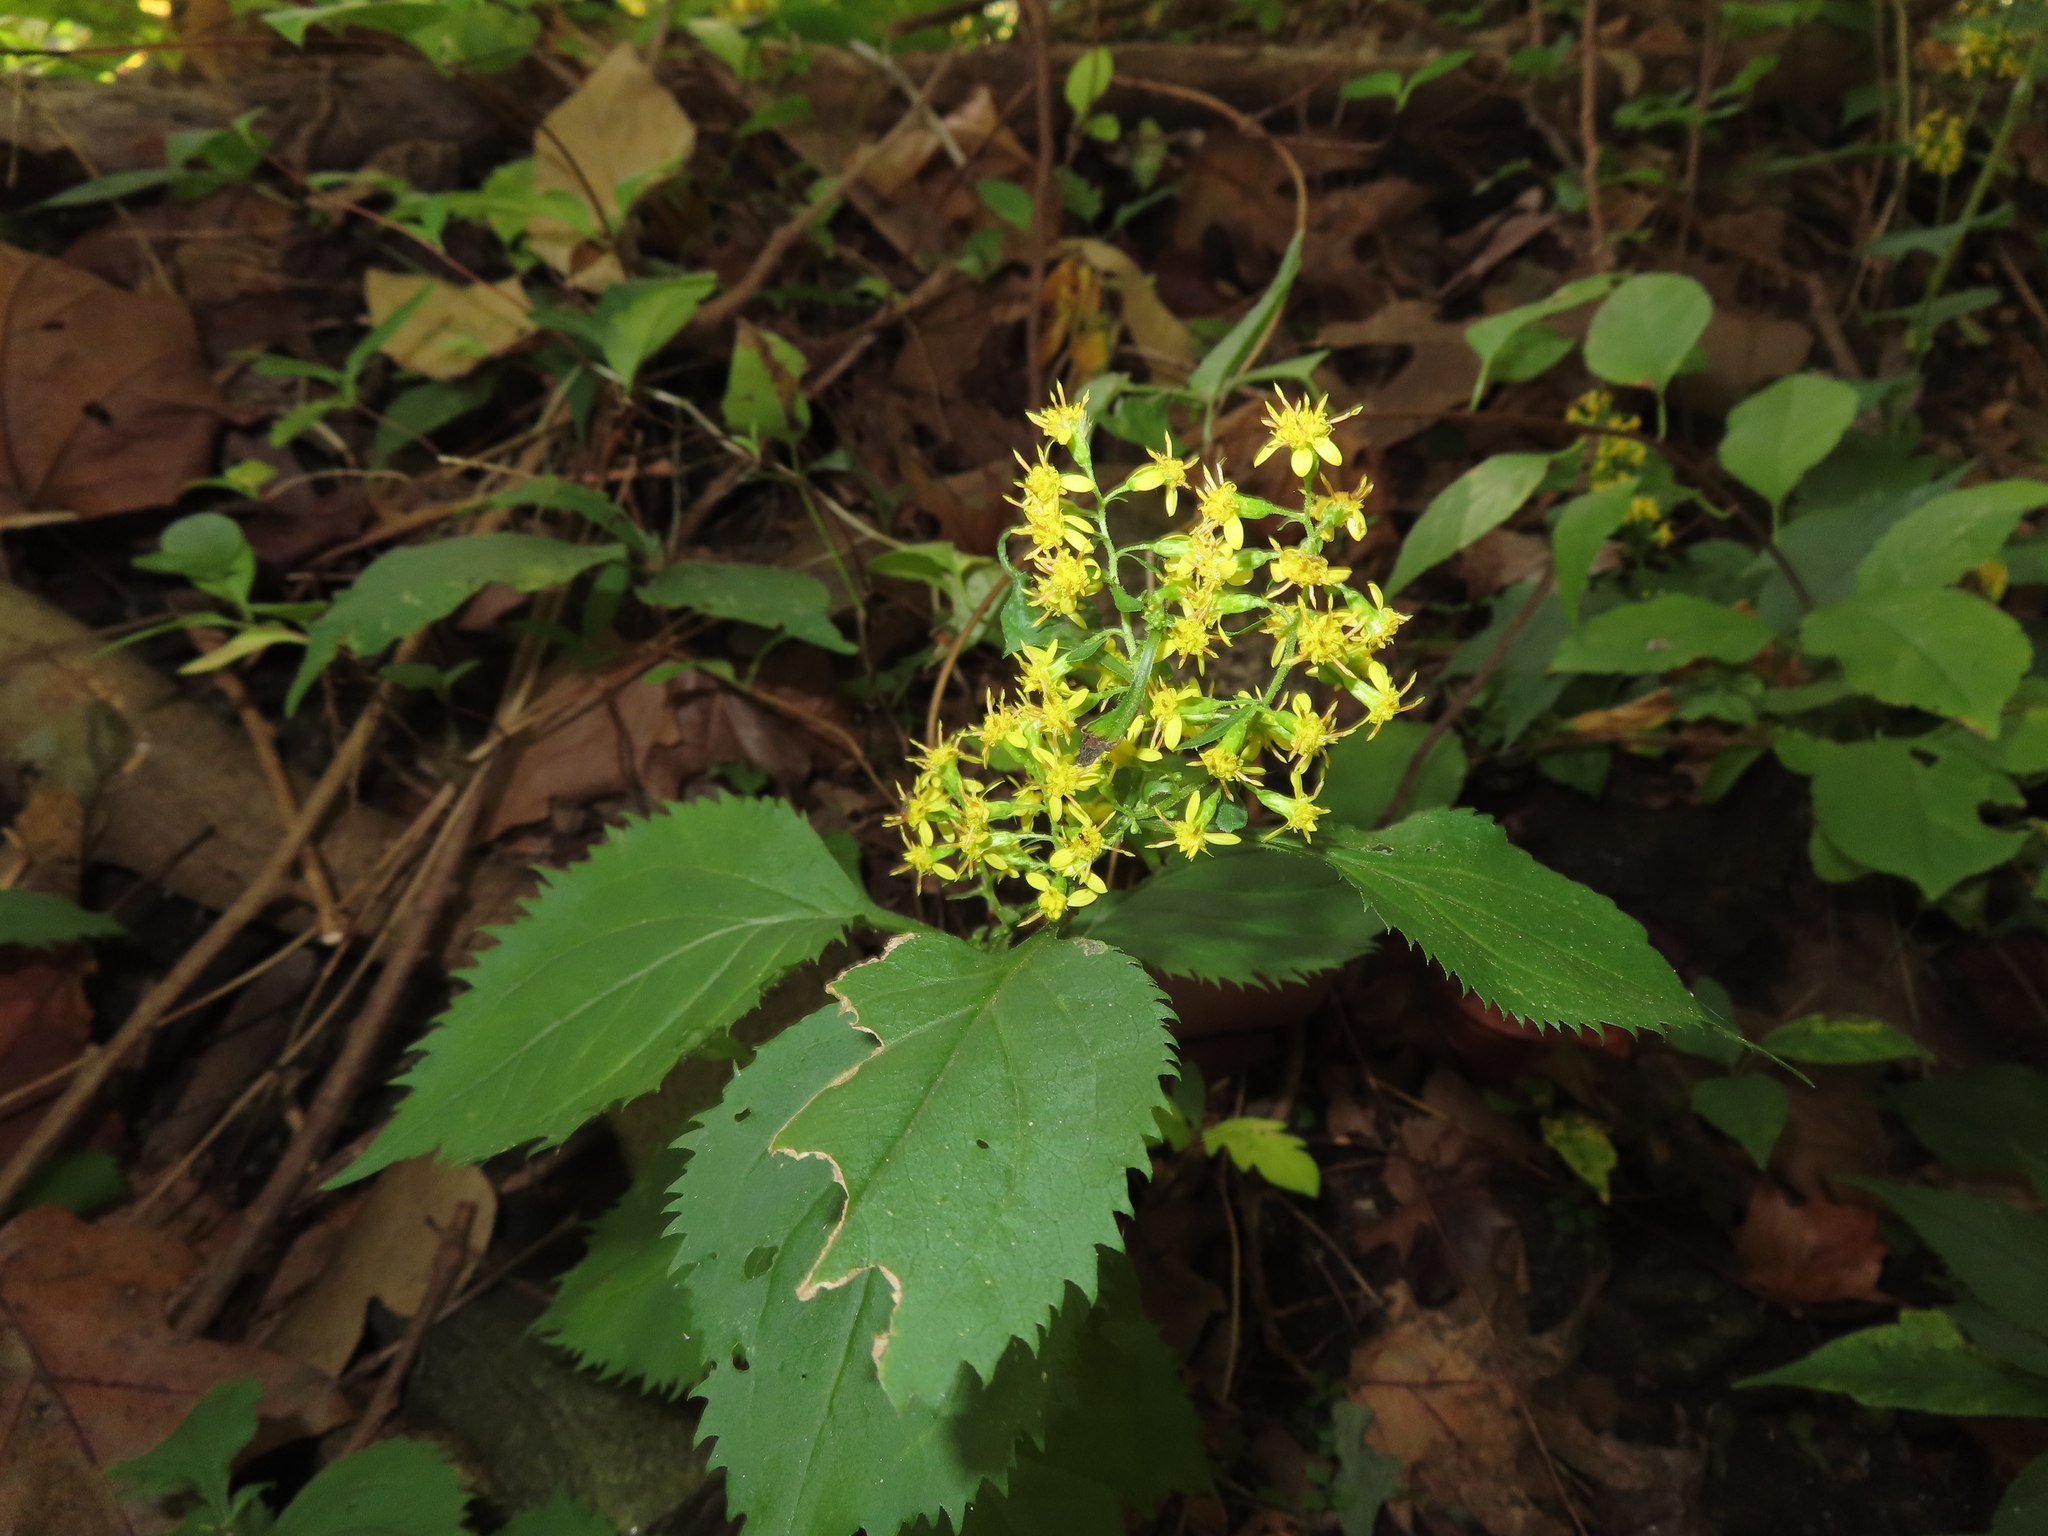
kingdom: Plantae
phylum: Tracheophyta
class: Magnoliopsida
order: Asterales
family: Asteraceae
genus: Solidago
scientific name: Solidago flexicaulis
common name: Zig-zag goldenrod
